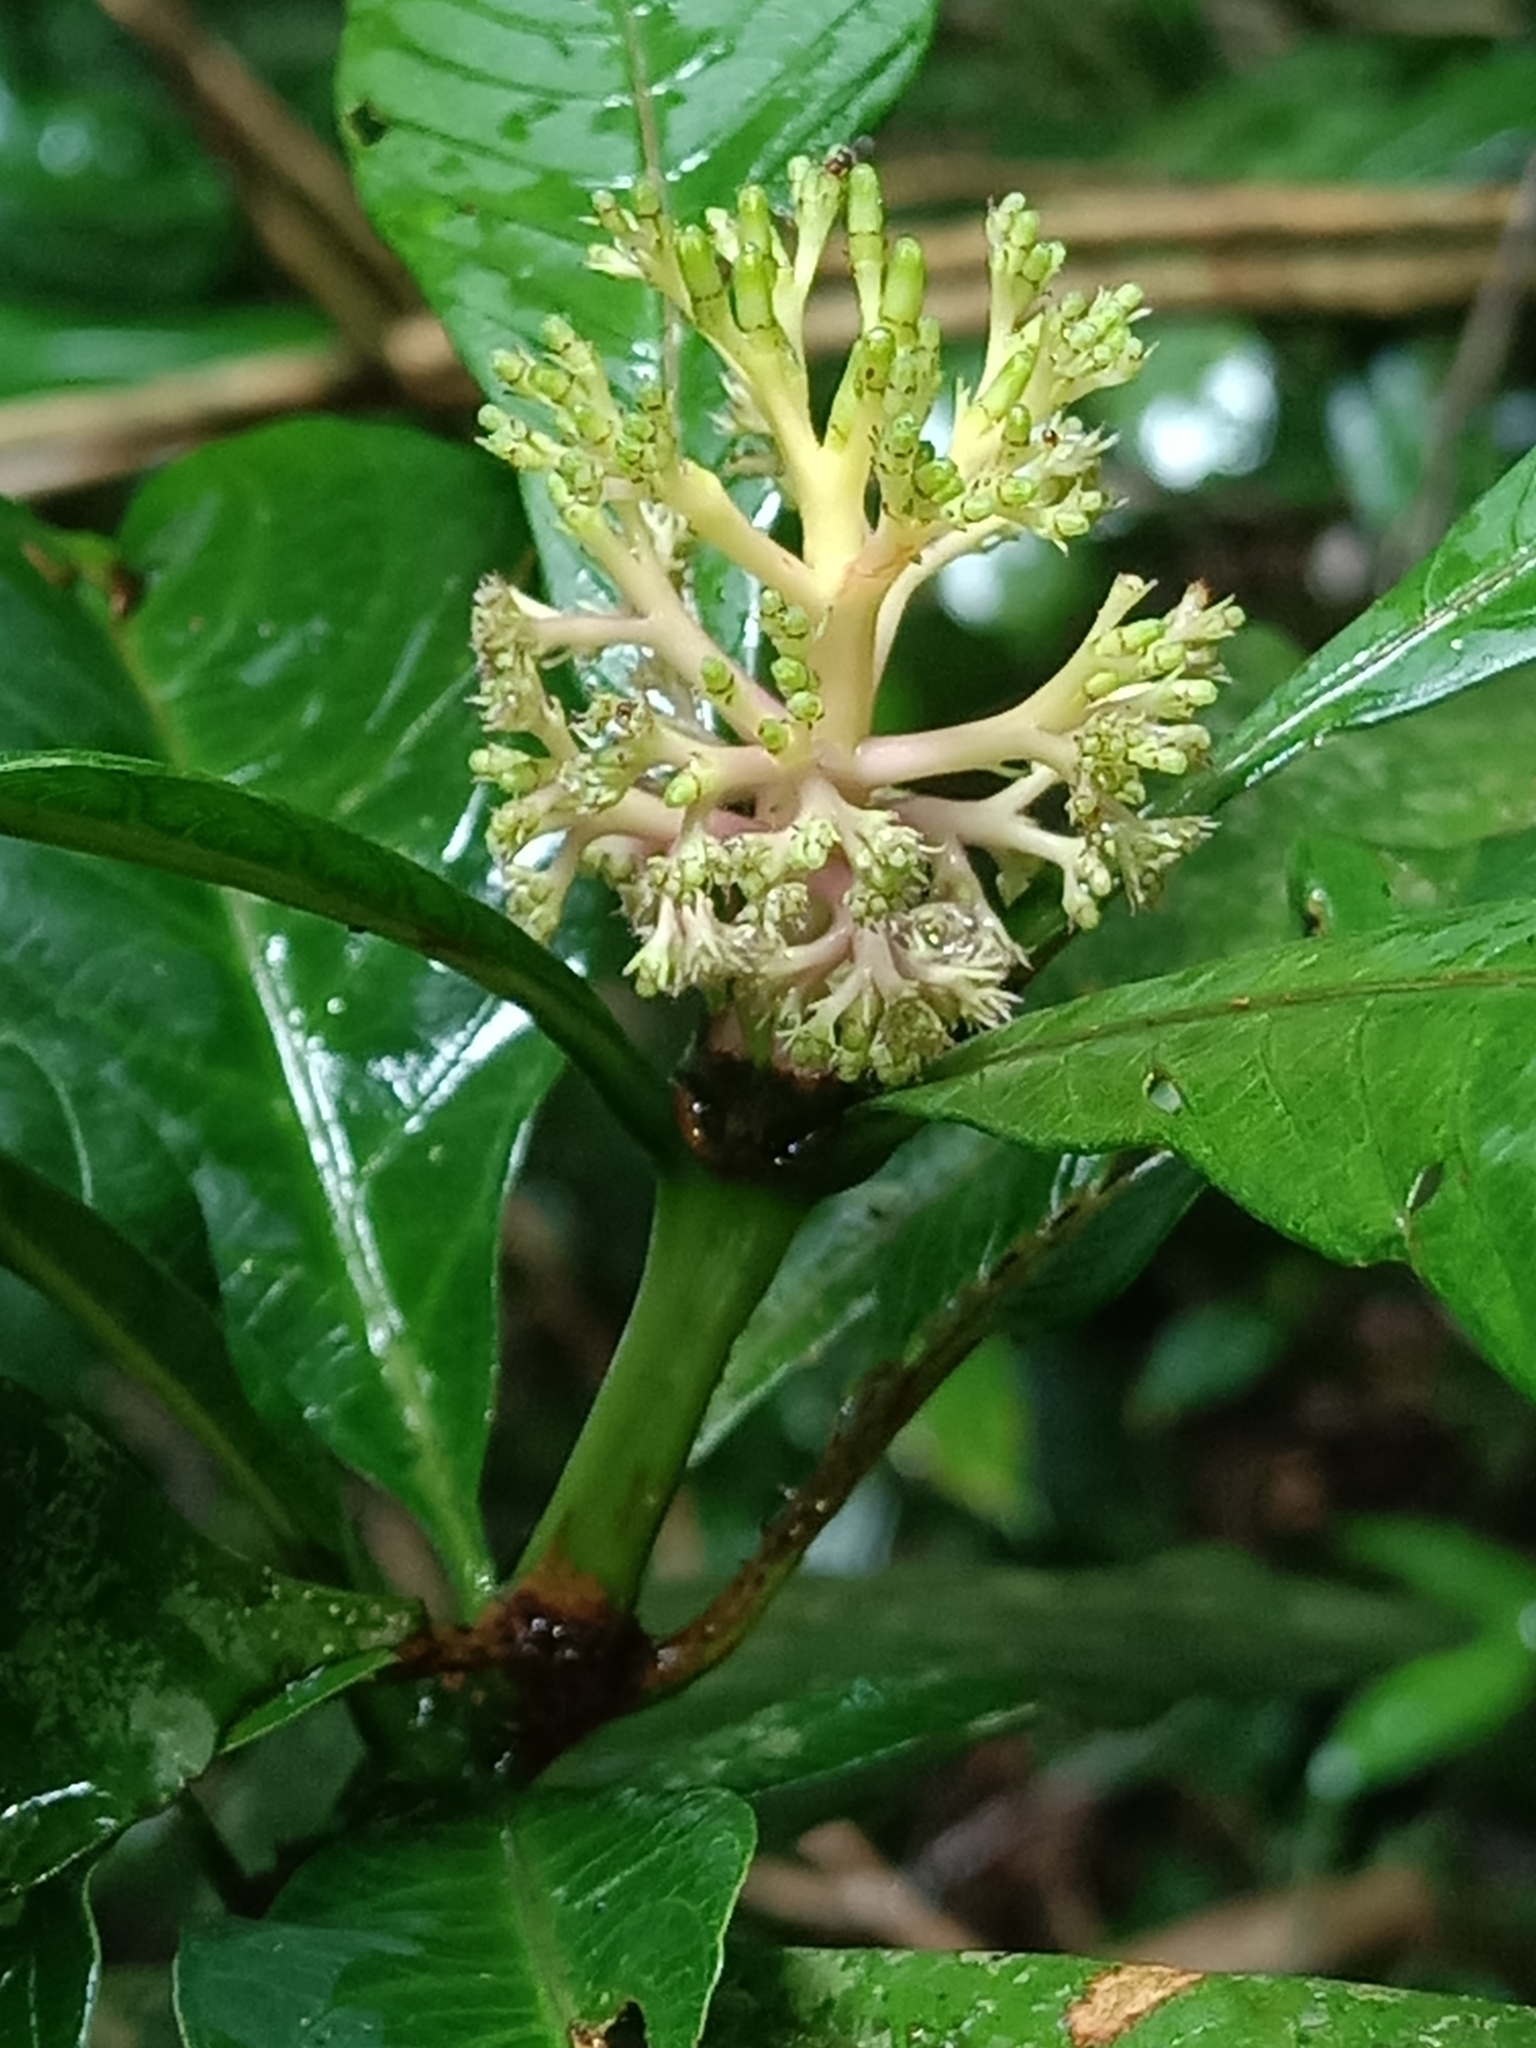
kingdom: Plantae
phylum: Tracheophyta
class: Magnoliopsida
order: Gentianales
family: Rubiaceae
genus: Palicourea
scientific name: Palicourea quadrifolia
